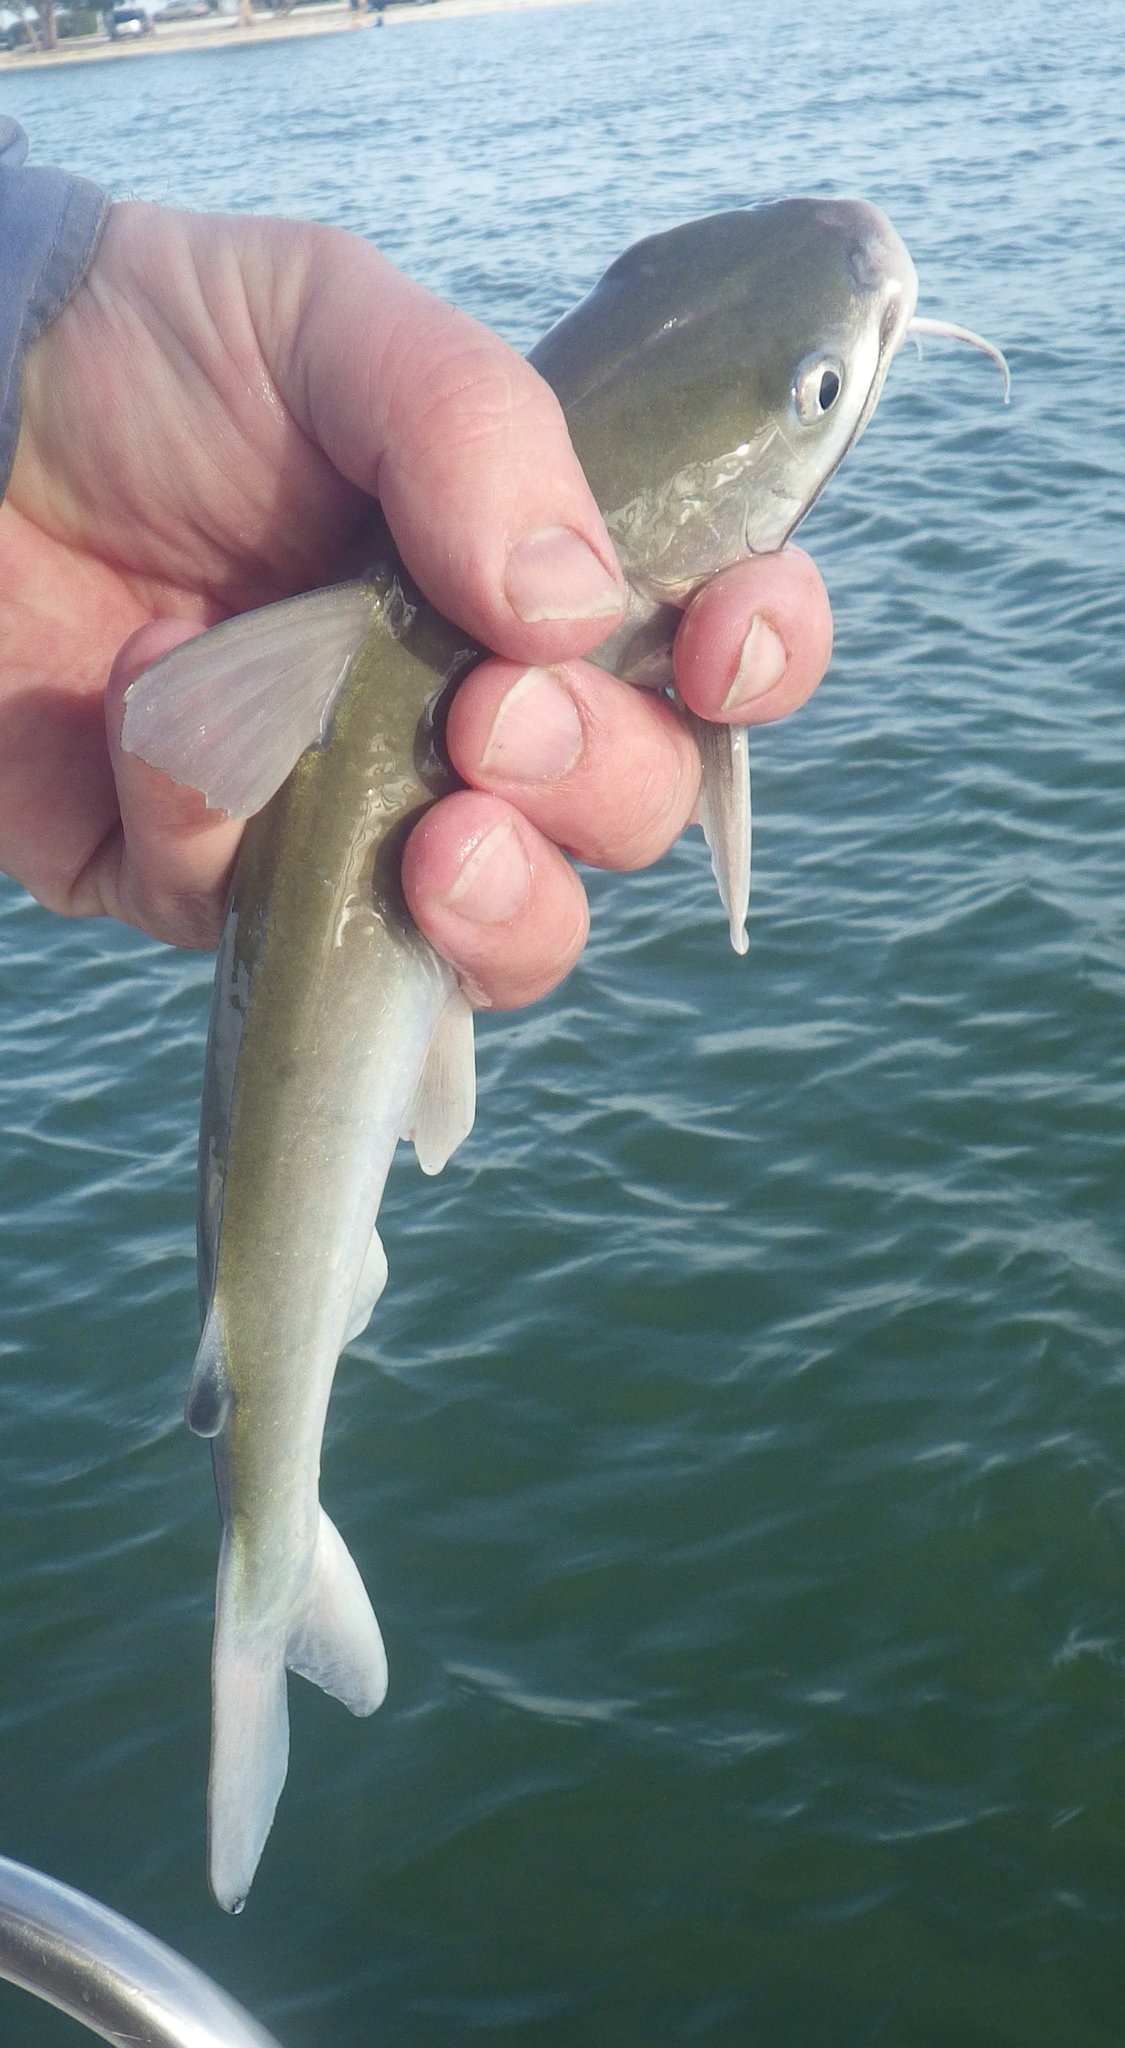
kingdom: Animalia
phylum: Chordata
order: Siluriformes
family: Ariidae
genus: Ariopsis
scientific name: Ariopsis felis
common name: Hardhead catfish
